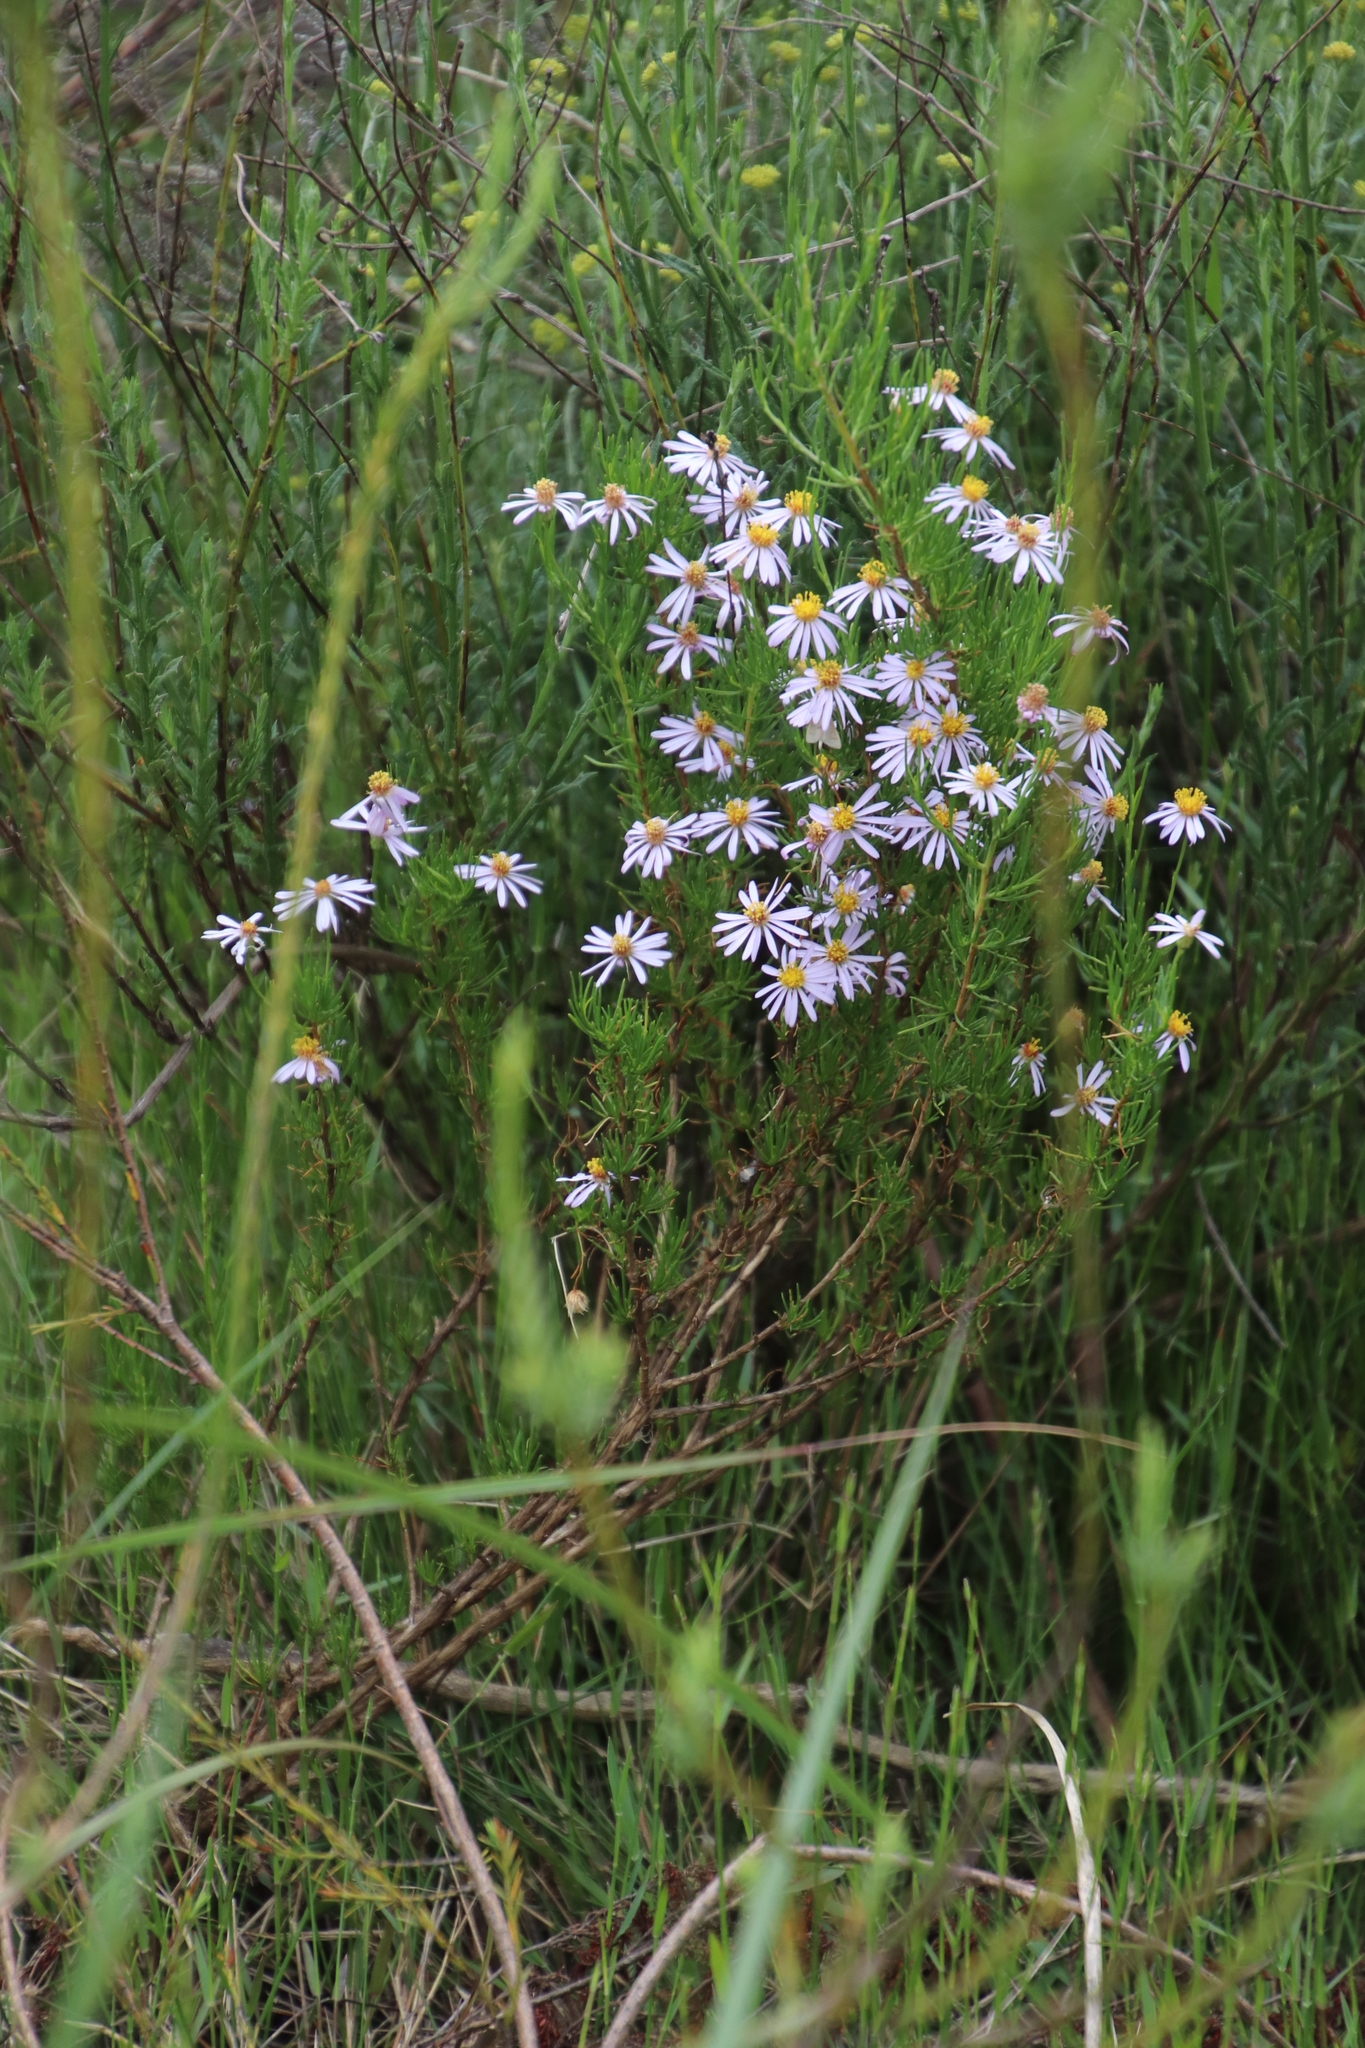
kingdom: Plantae
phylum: Tracheophyta
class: Magnoliopsida
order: Asterales
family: Asteraceae
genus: Felicia
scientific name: Felicia filifolia
